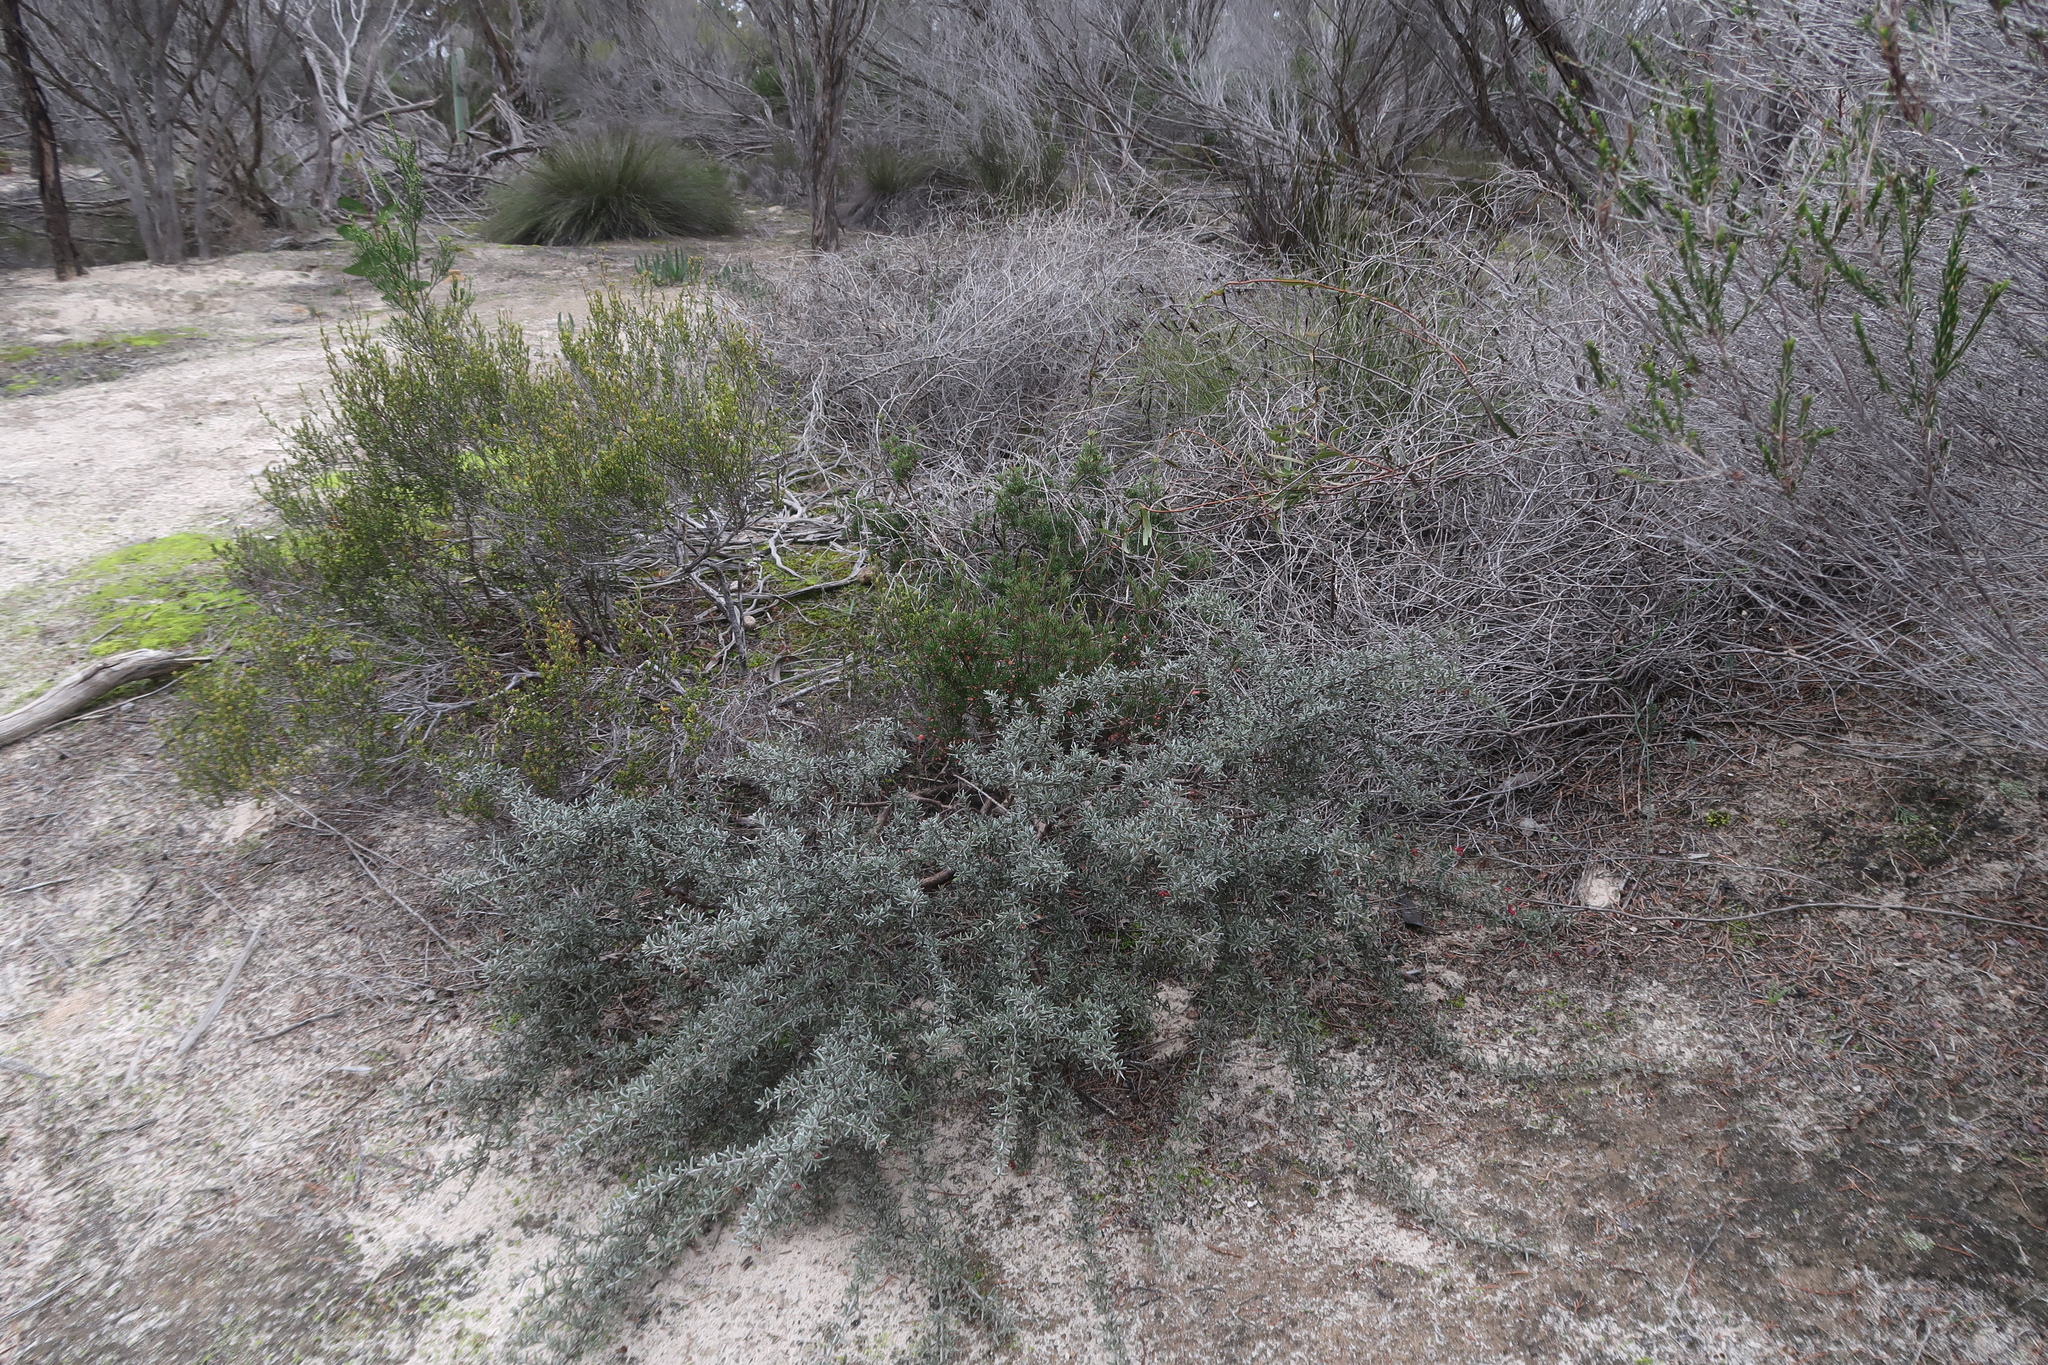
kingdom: Plantae
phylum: Tracheophyta
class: Magnoliopsida
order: Proteales
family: Proteaceae
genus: Grevillea
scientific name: Grevillea lavandulacea
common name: Lavender grevillea
